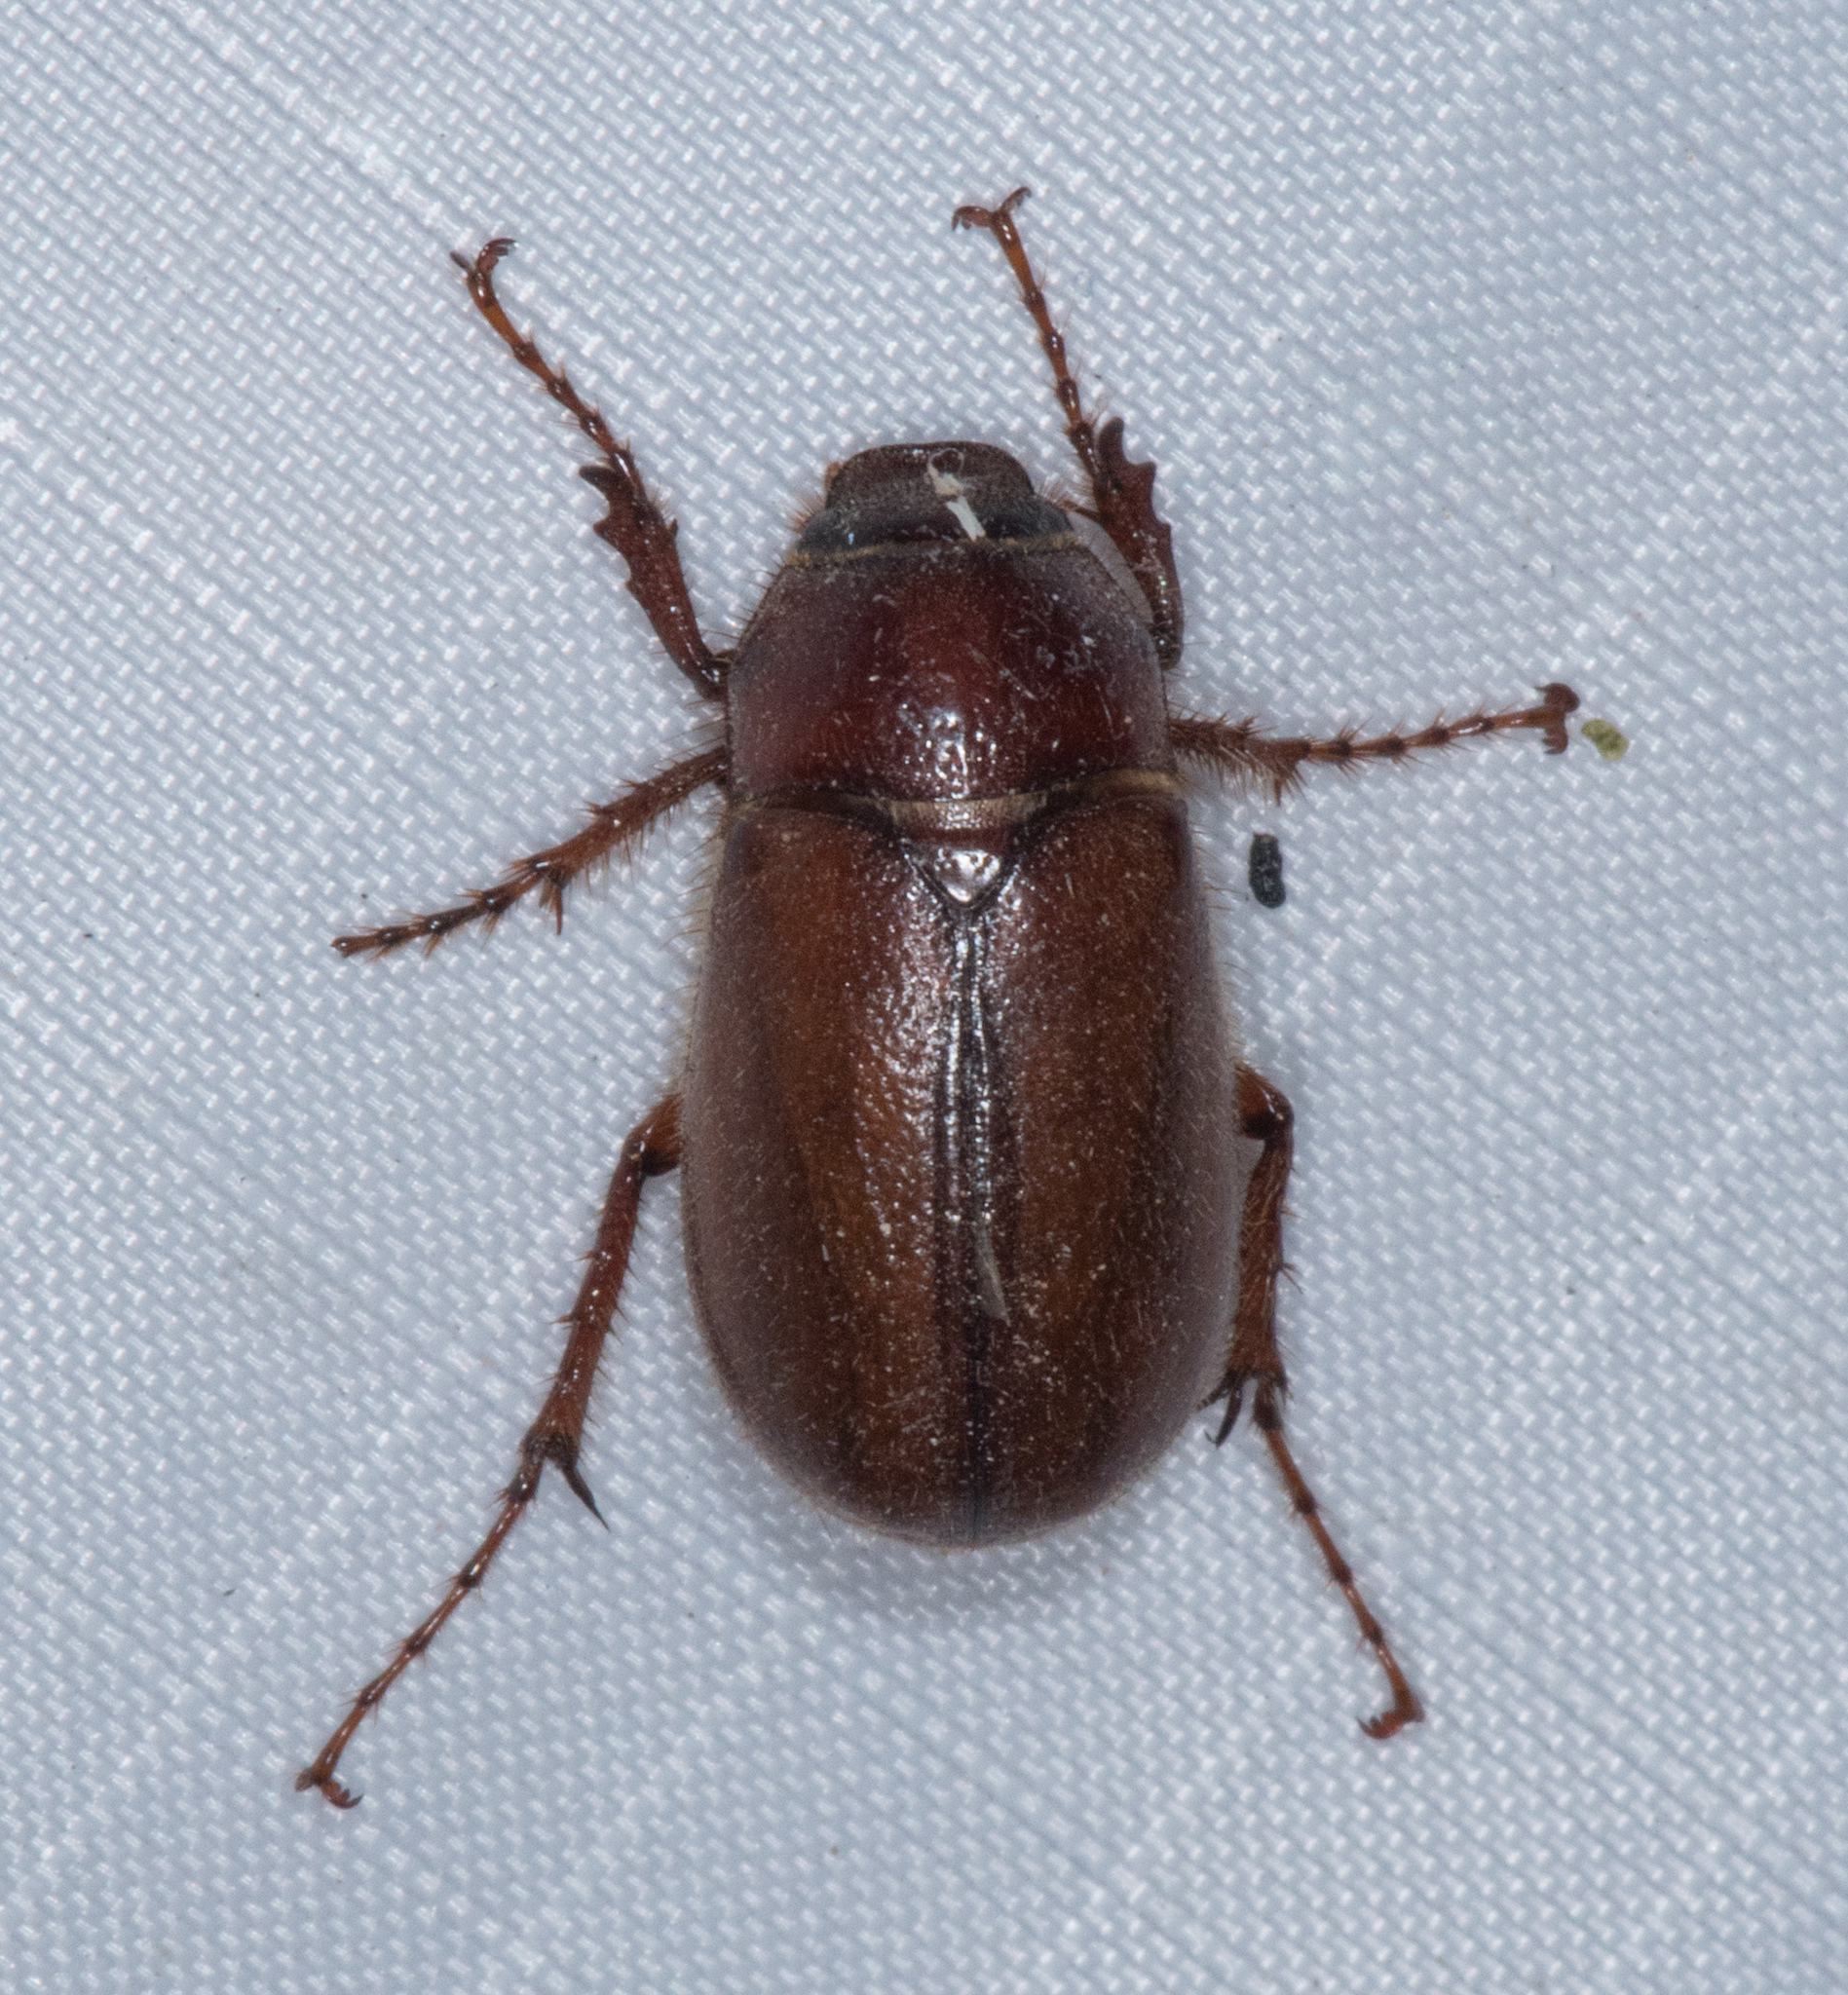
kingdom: Animalia
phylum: Arthropoda
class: Insecta
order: Coleoptera
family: Scarabaeidae
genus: Phyllophaga
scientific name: Phyllophaga dentex
